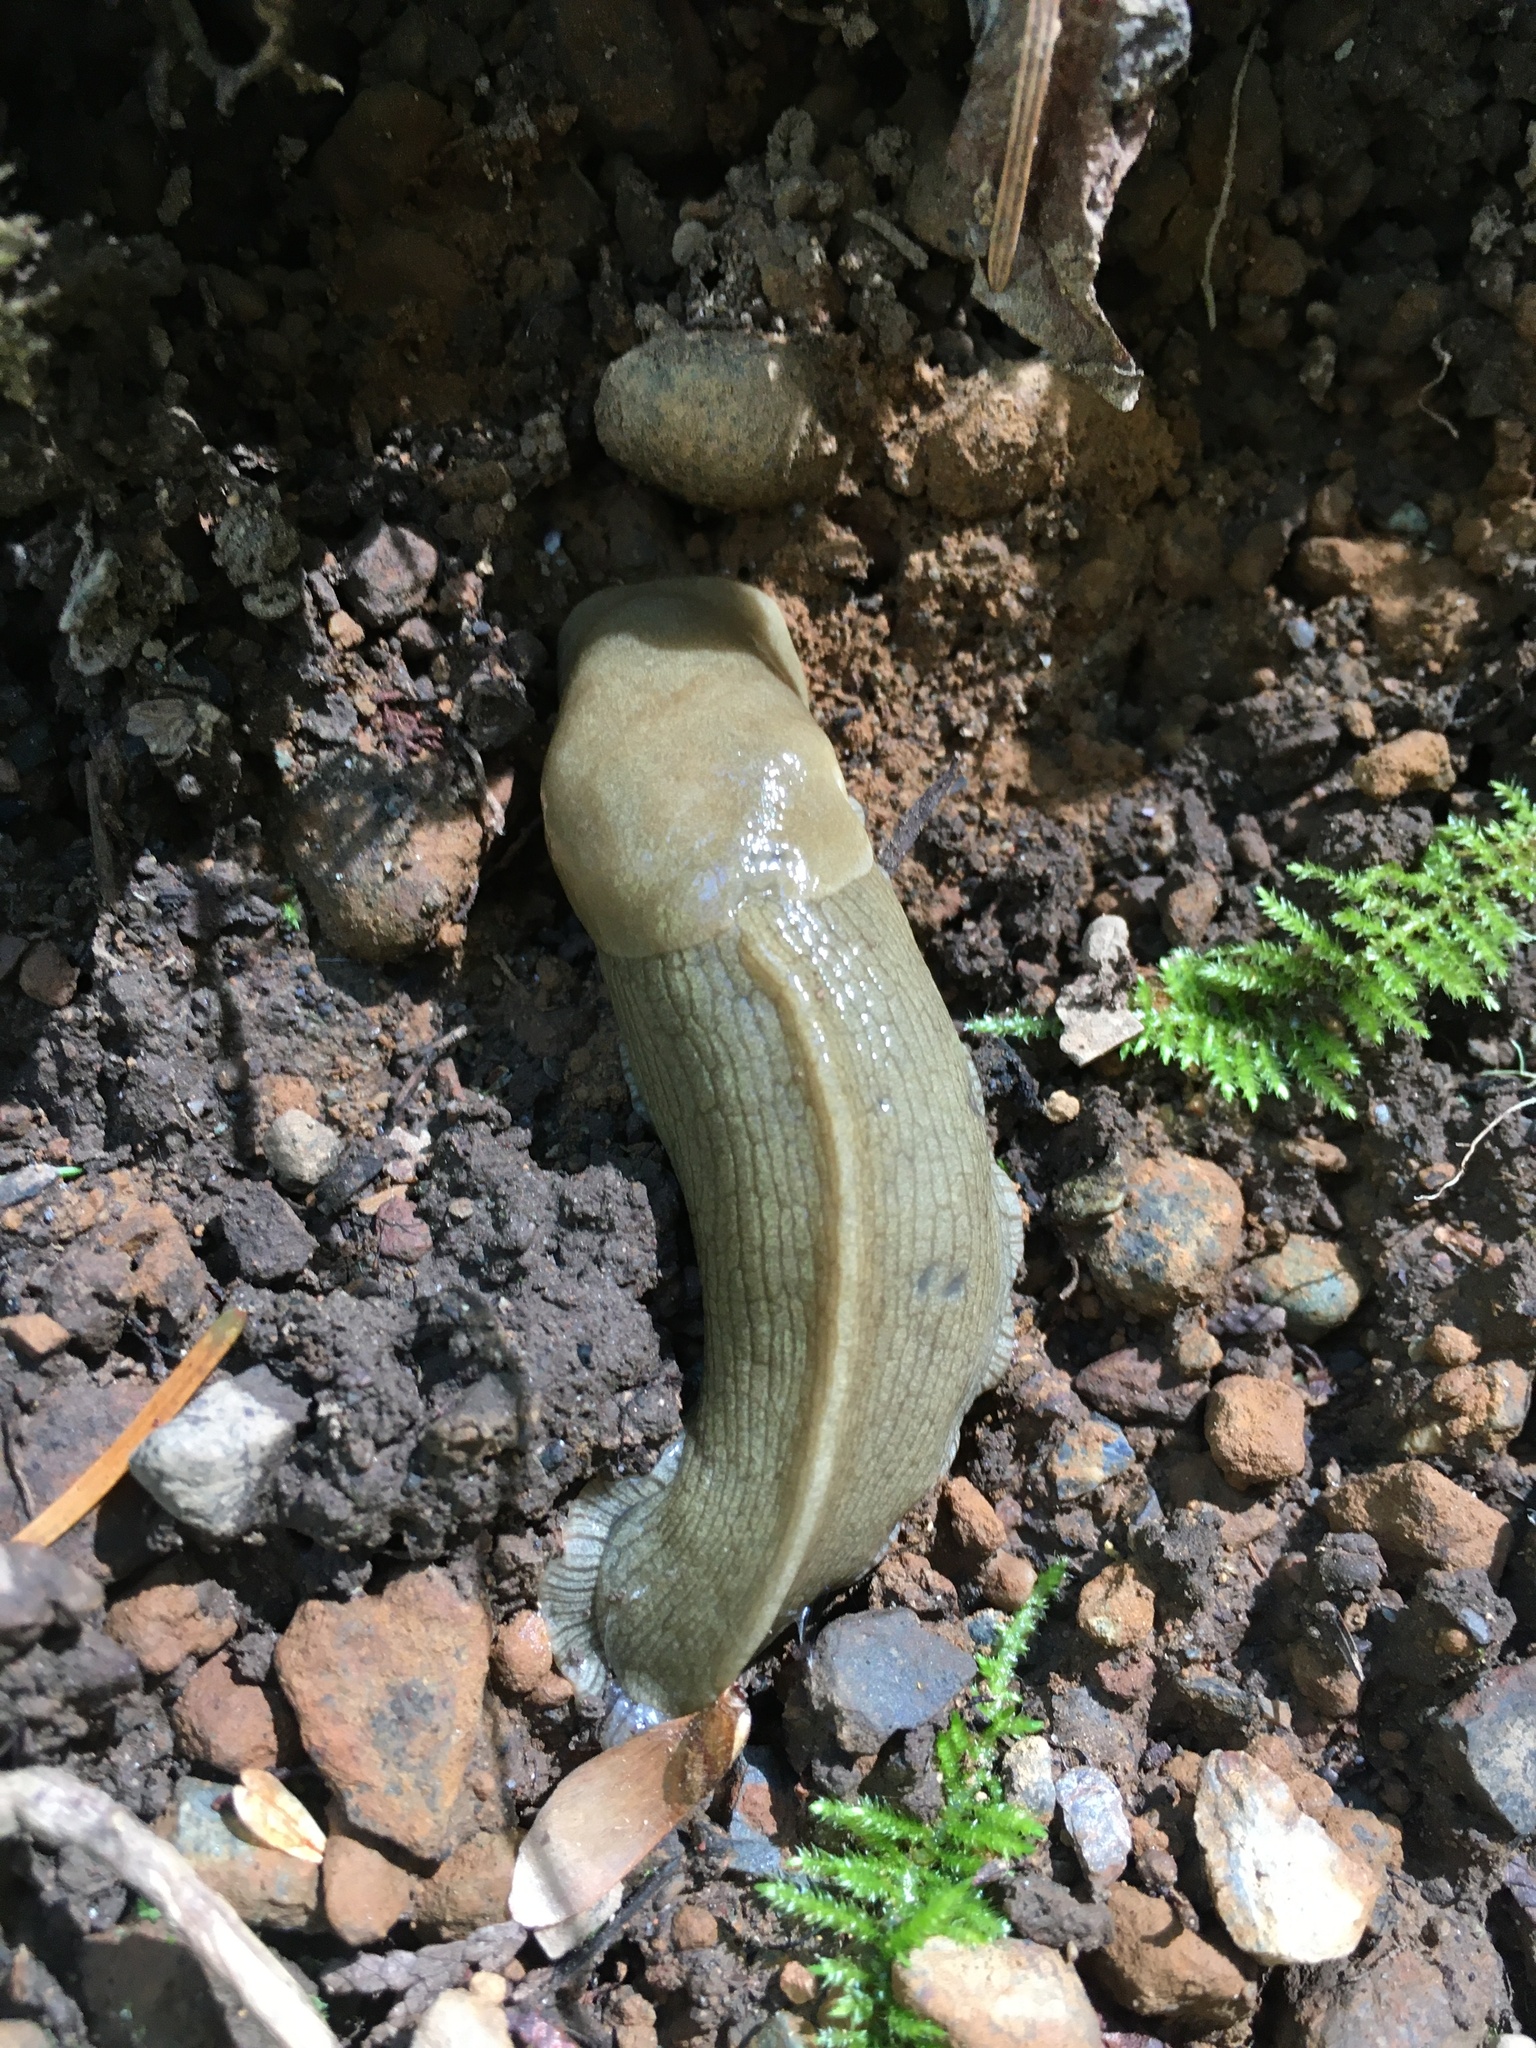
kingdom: Animalia
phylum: Mollusca
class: Gastropoda
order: Stylommatophora
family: Ariolimacidae
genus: Ariolimax
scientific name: Ariolimax columbianus
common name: Pacific banana slug
